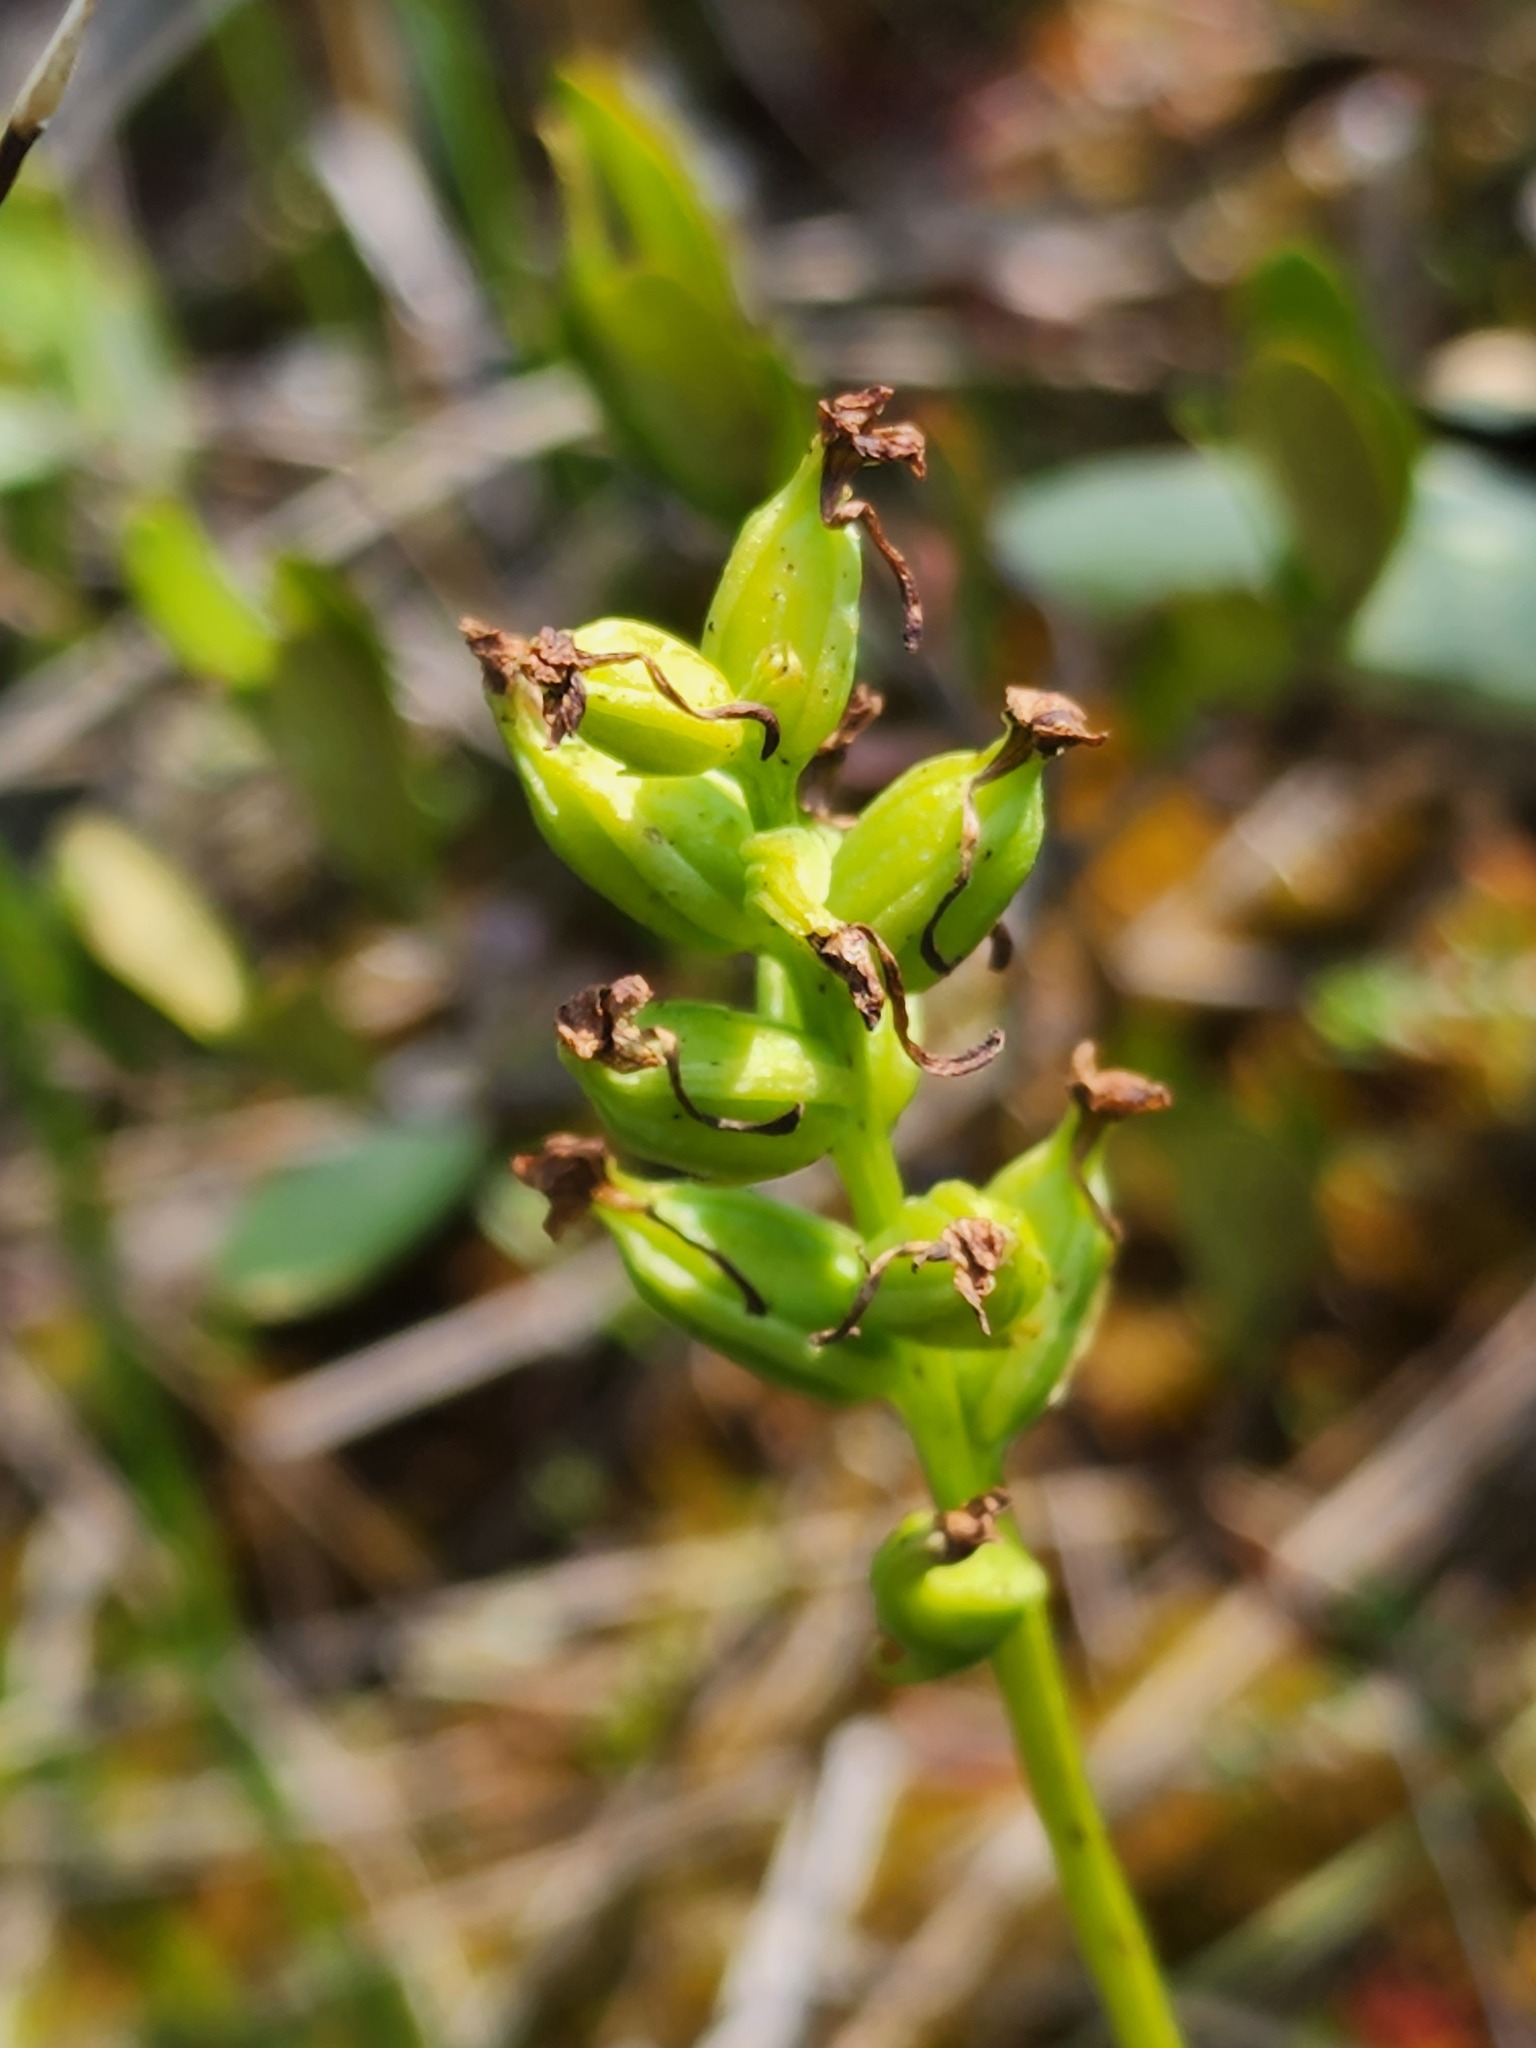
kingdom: Plantae
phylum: Tracheophyta
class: Liliopsida
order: Asparagales
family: Orchidaceae
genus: Platanthera
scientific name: Platanthera clavellata
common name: Club-spur orchid
